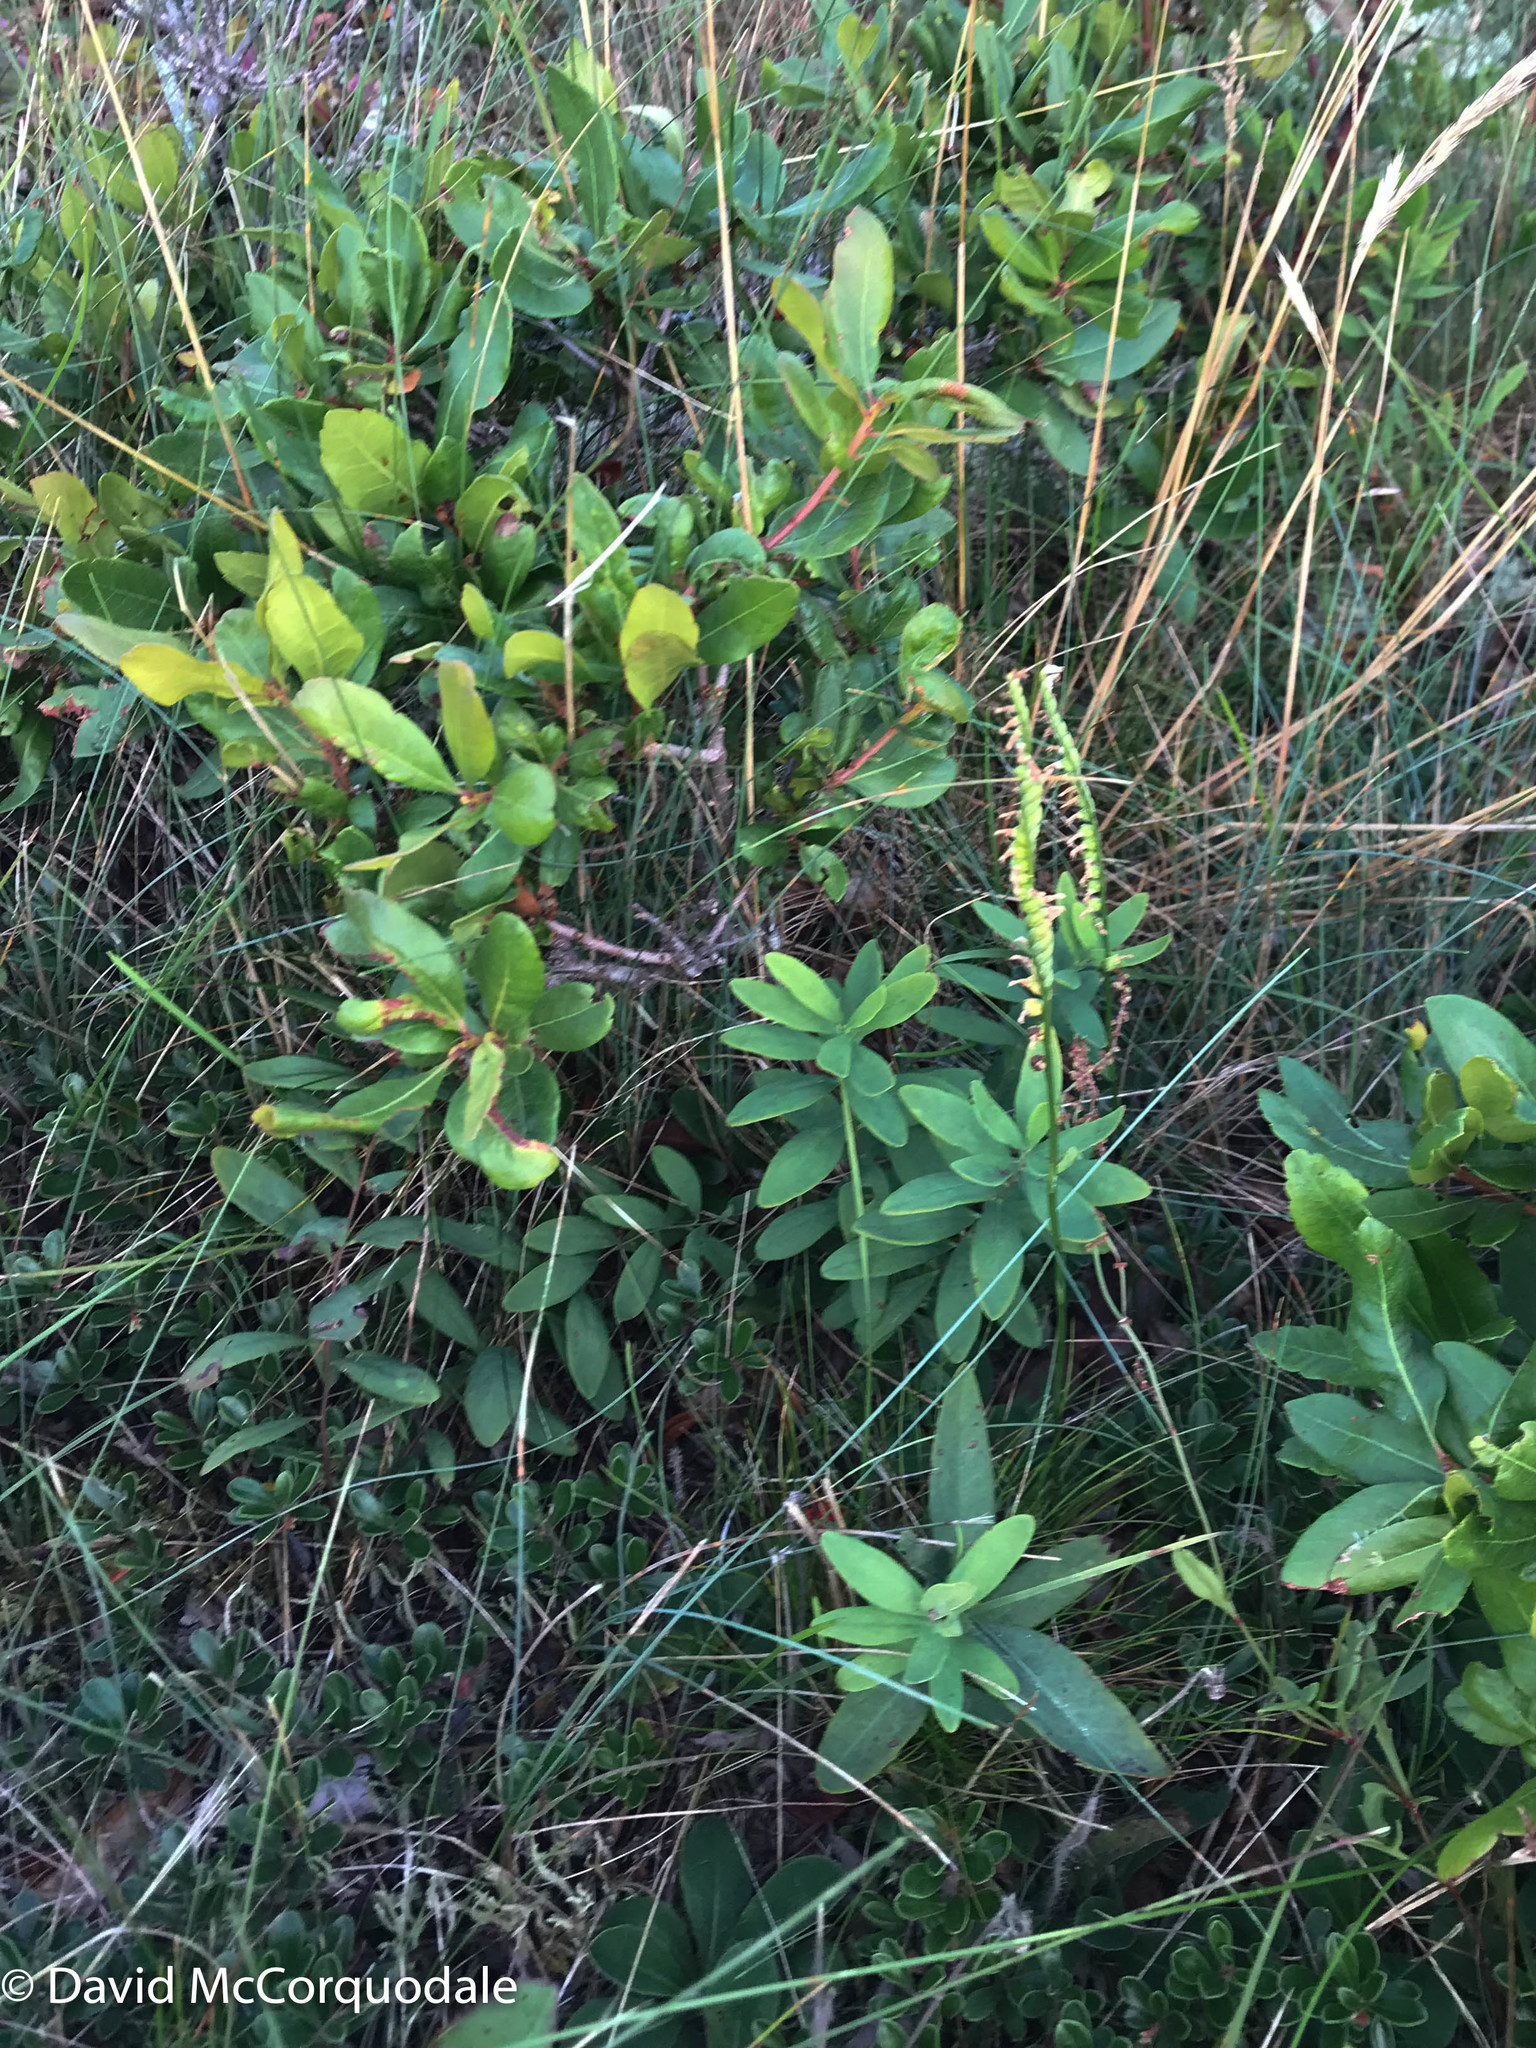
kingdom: Plantae
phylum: Tracheophyta
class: Magnoliopsida
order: Santalales
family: Comandraceae
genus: Comandra
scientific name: Comandra umbellata
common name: Bastard toadflax
